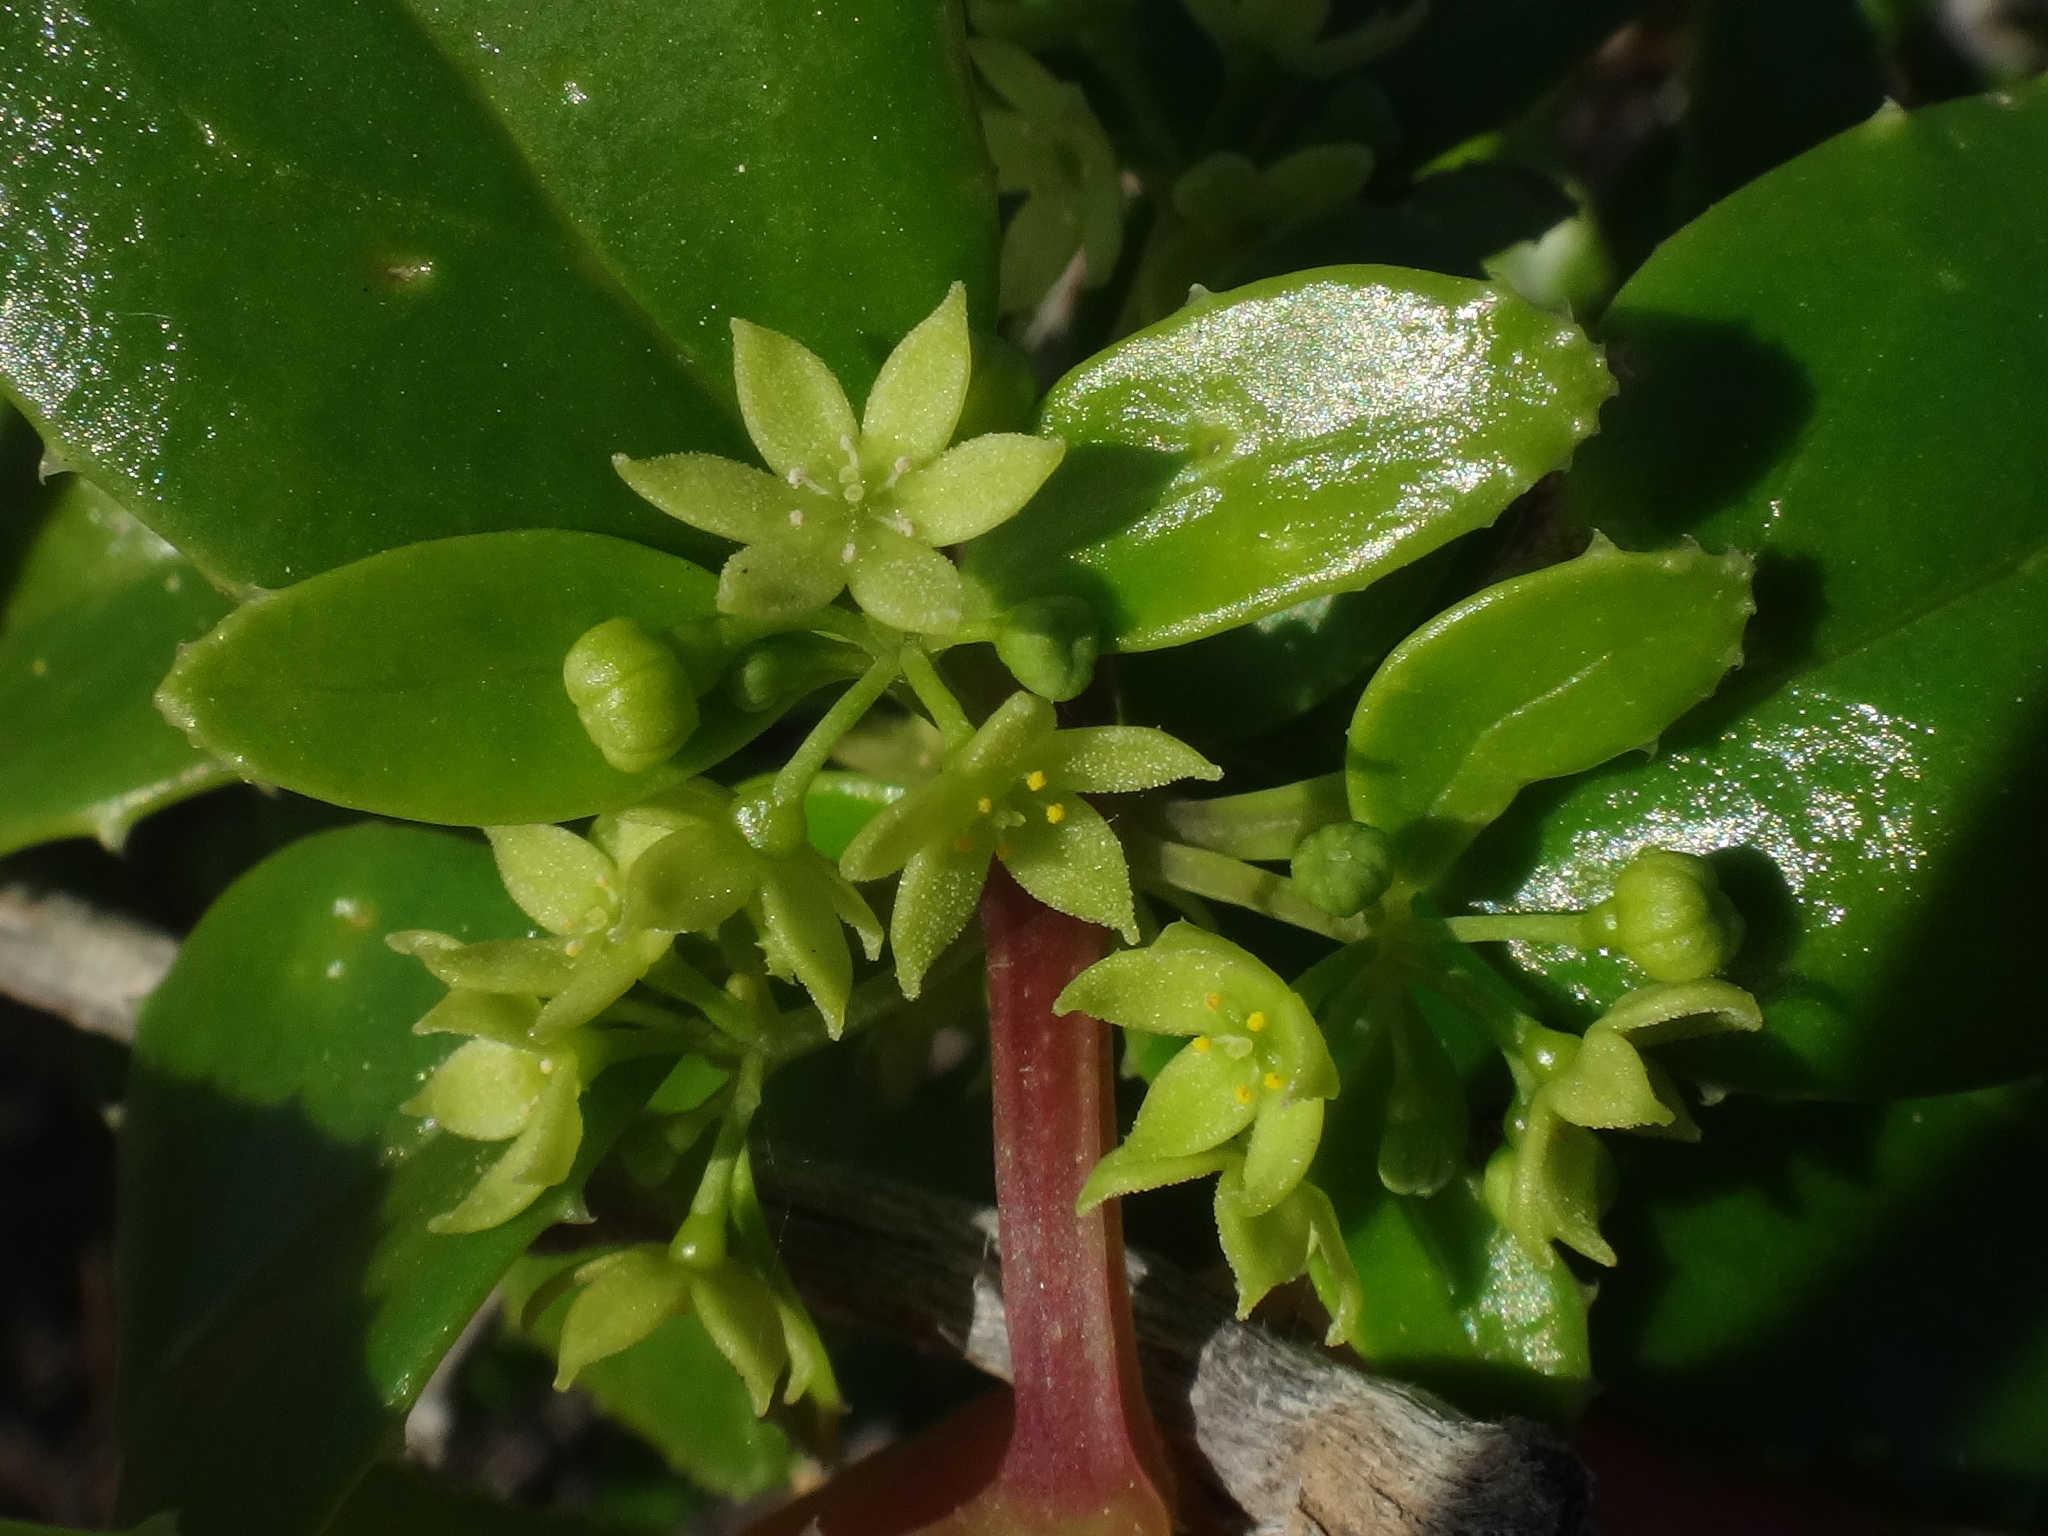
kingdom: Plantae
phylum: Tracheophyta
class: Magnoliopsida
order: Gentianales
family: Rubiaceae
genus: Rubia
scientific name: Rubia fruticosa
